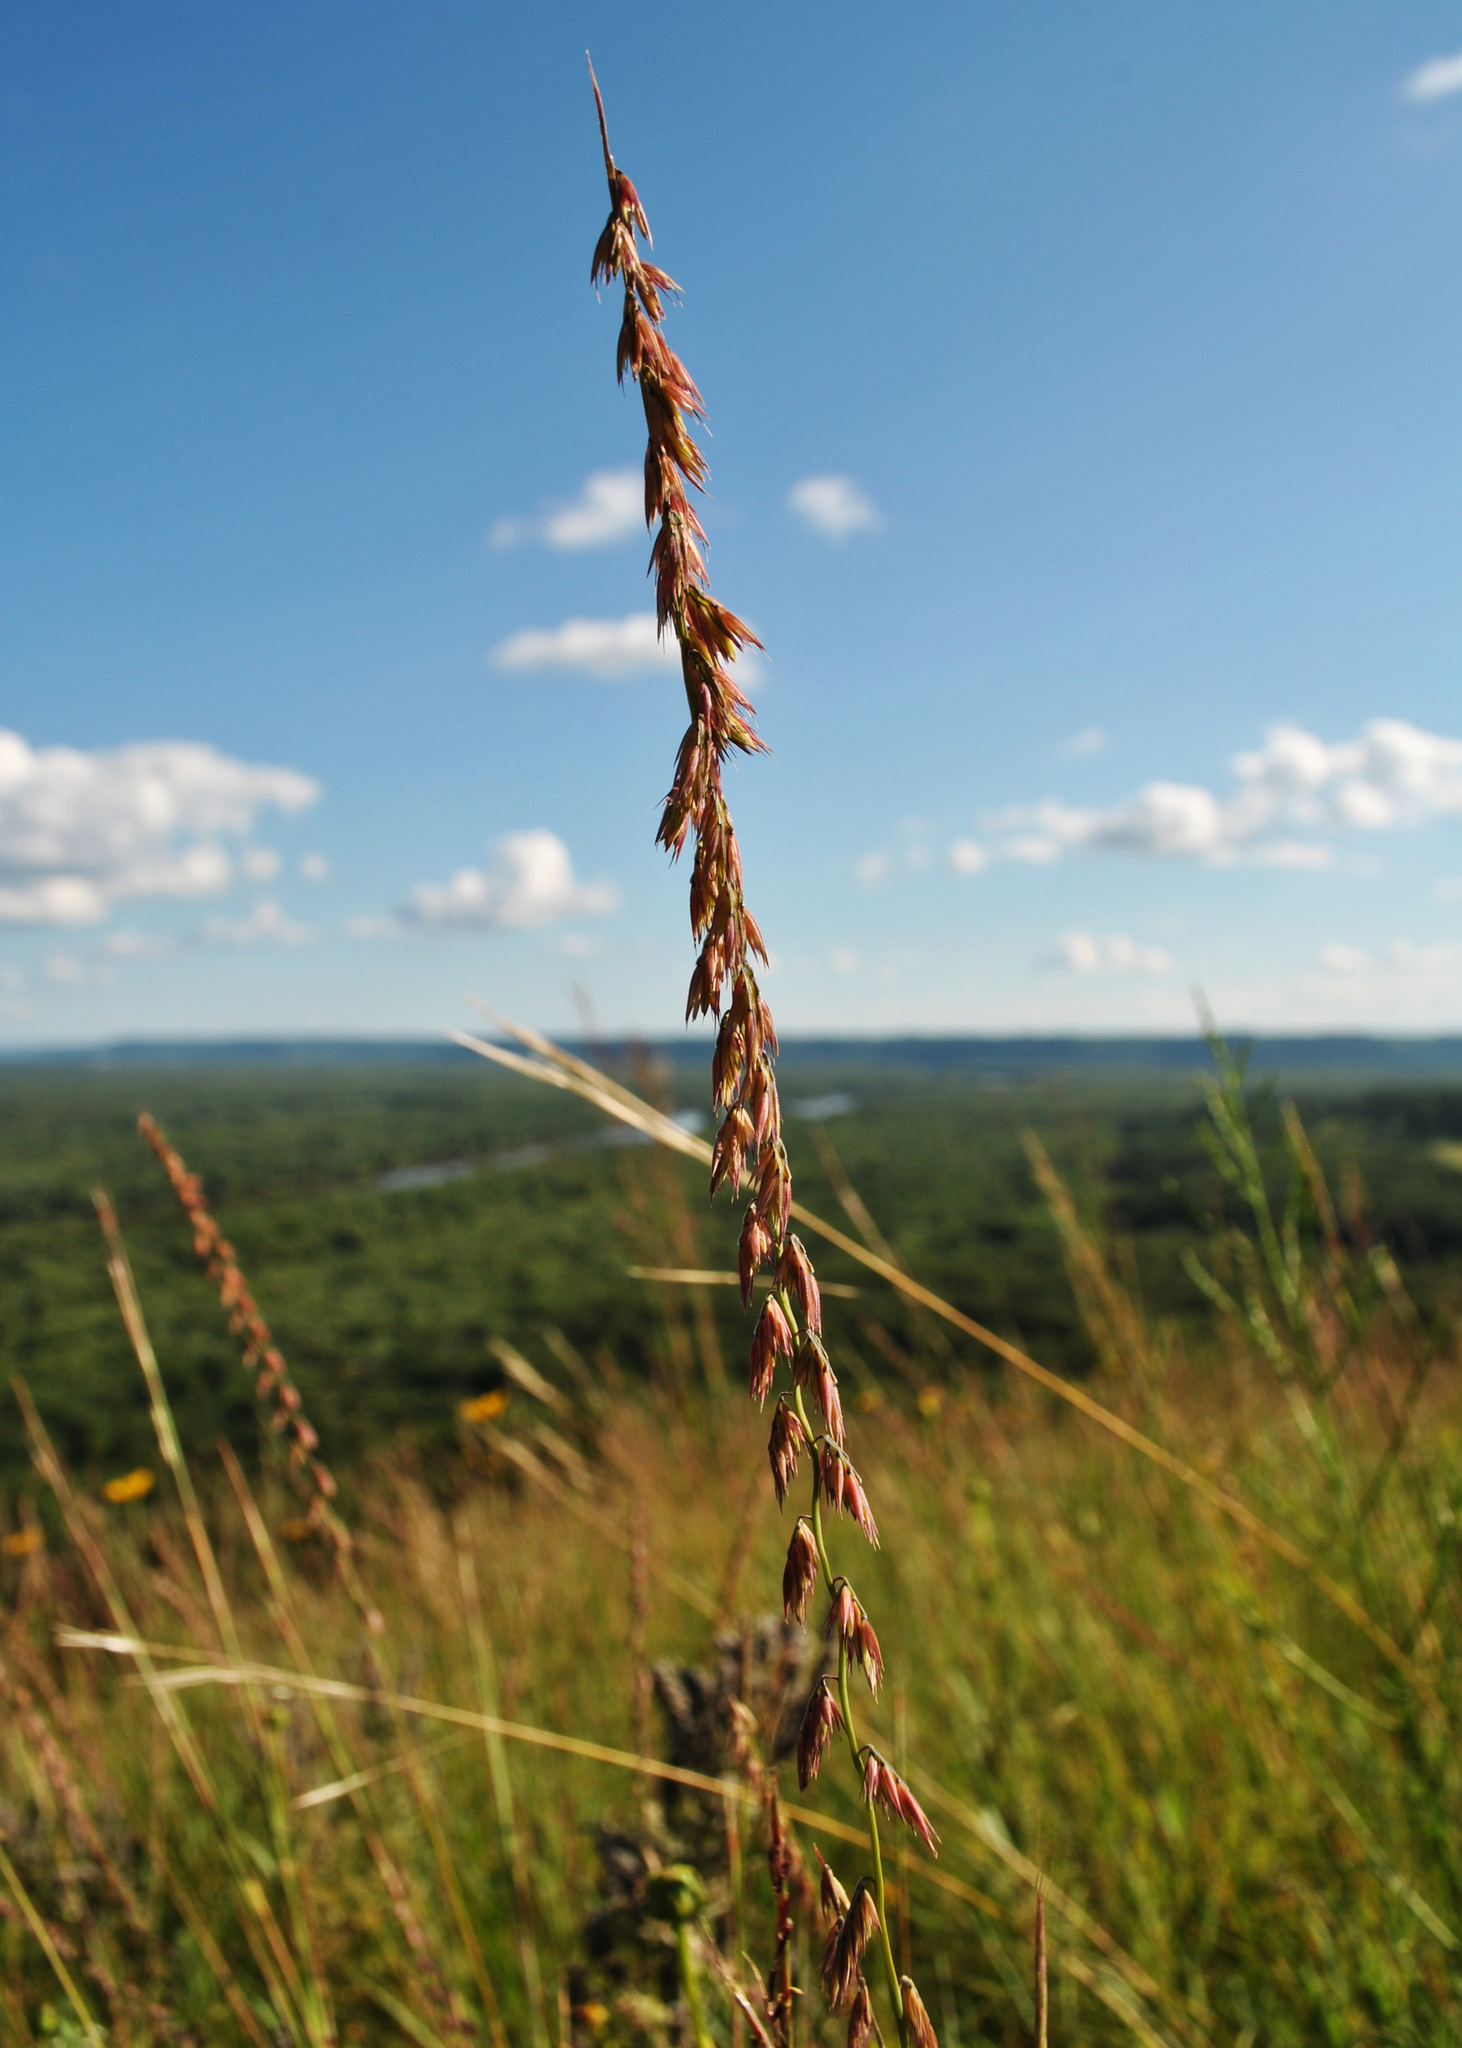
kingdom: Plantae
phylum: Tracheophyta
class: Liliopsida
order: Poales
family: Poaceae
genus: Bouteloua
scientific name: Bouteloua curtipendula
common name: Side-oats grama
